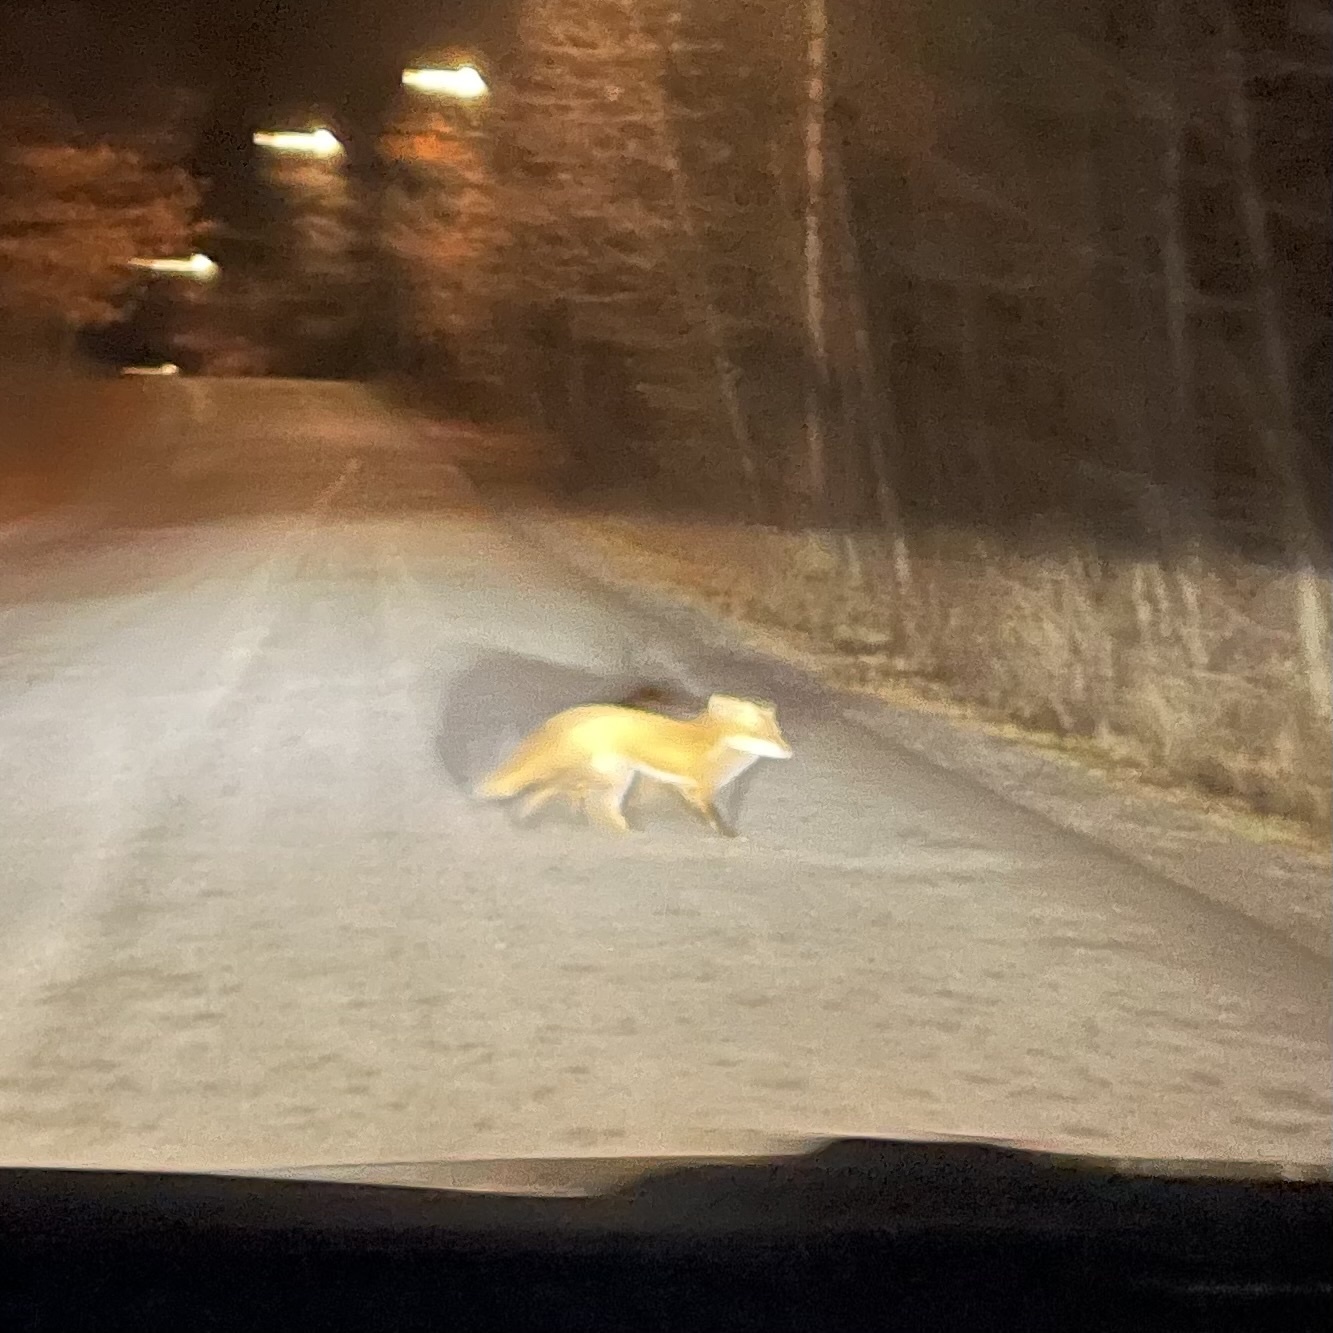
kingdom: Animalia
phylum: Chordata
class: Mammalia
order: Carnivora
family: Canidae
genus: Vulpes
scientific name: Vulpes vulpes
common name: Red fox
